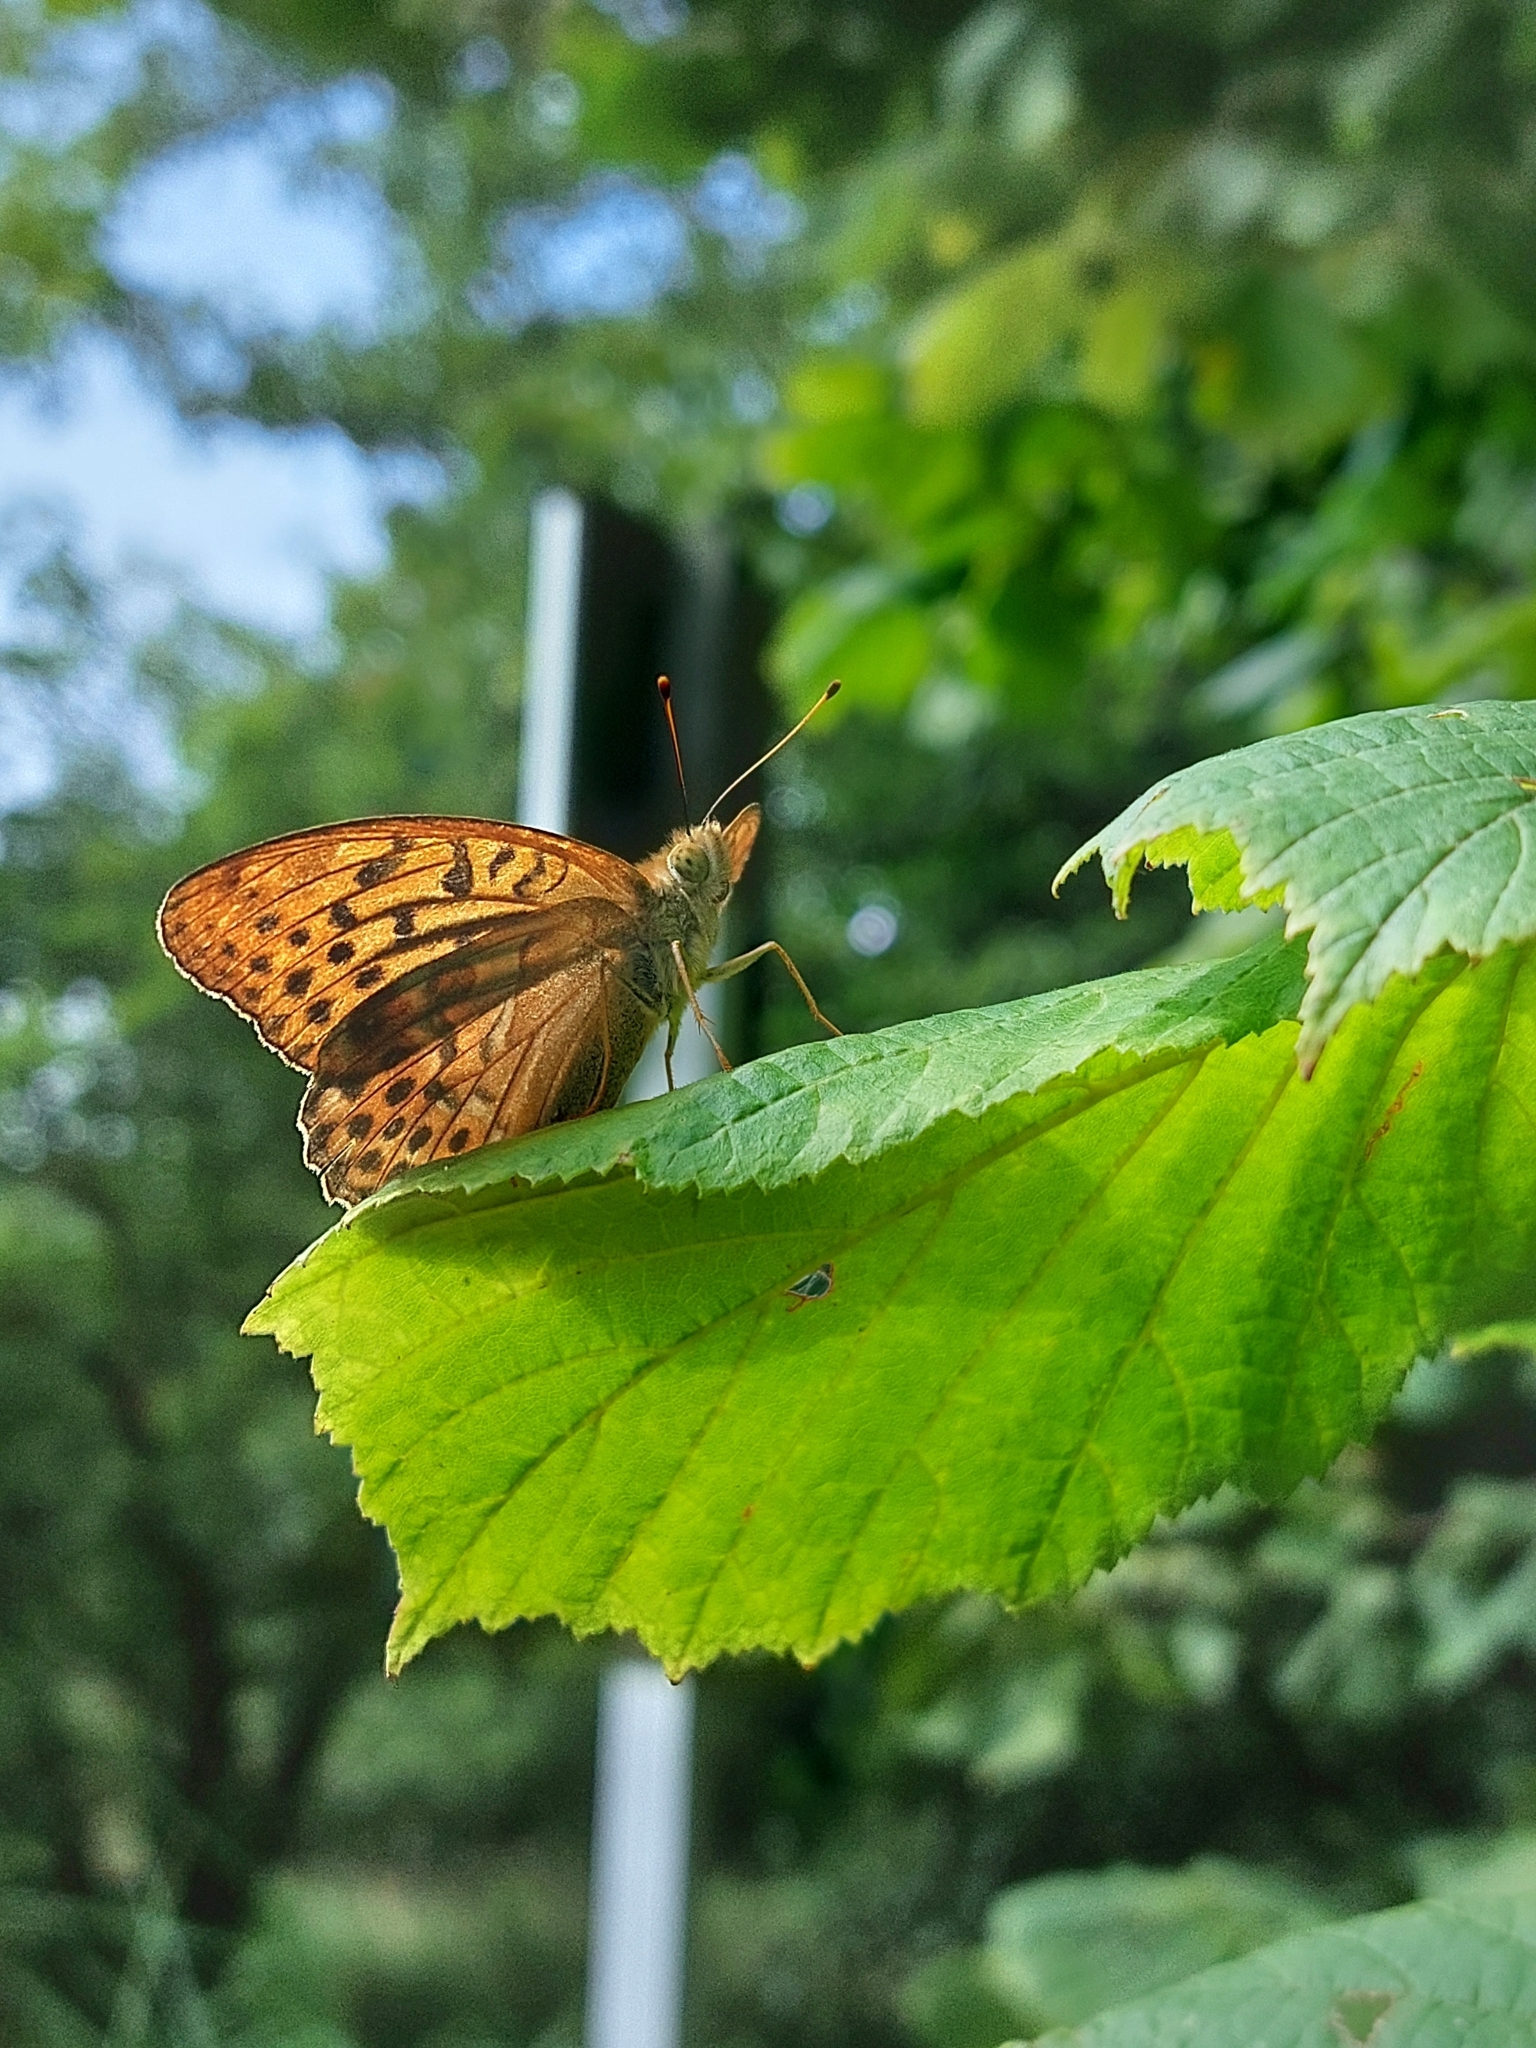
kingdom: Animalia
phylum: Arthropoda
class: Insecta
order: Lepidoptera
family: Nymphalidae
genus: Argynnis
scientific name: Argynnis paphia
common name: Silver-washed fritillary
